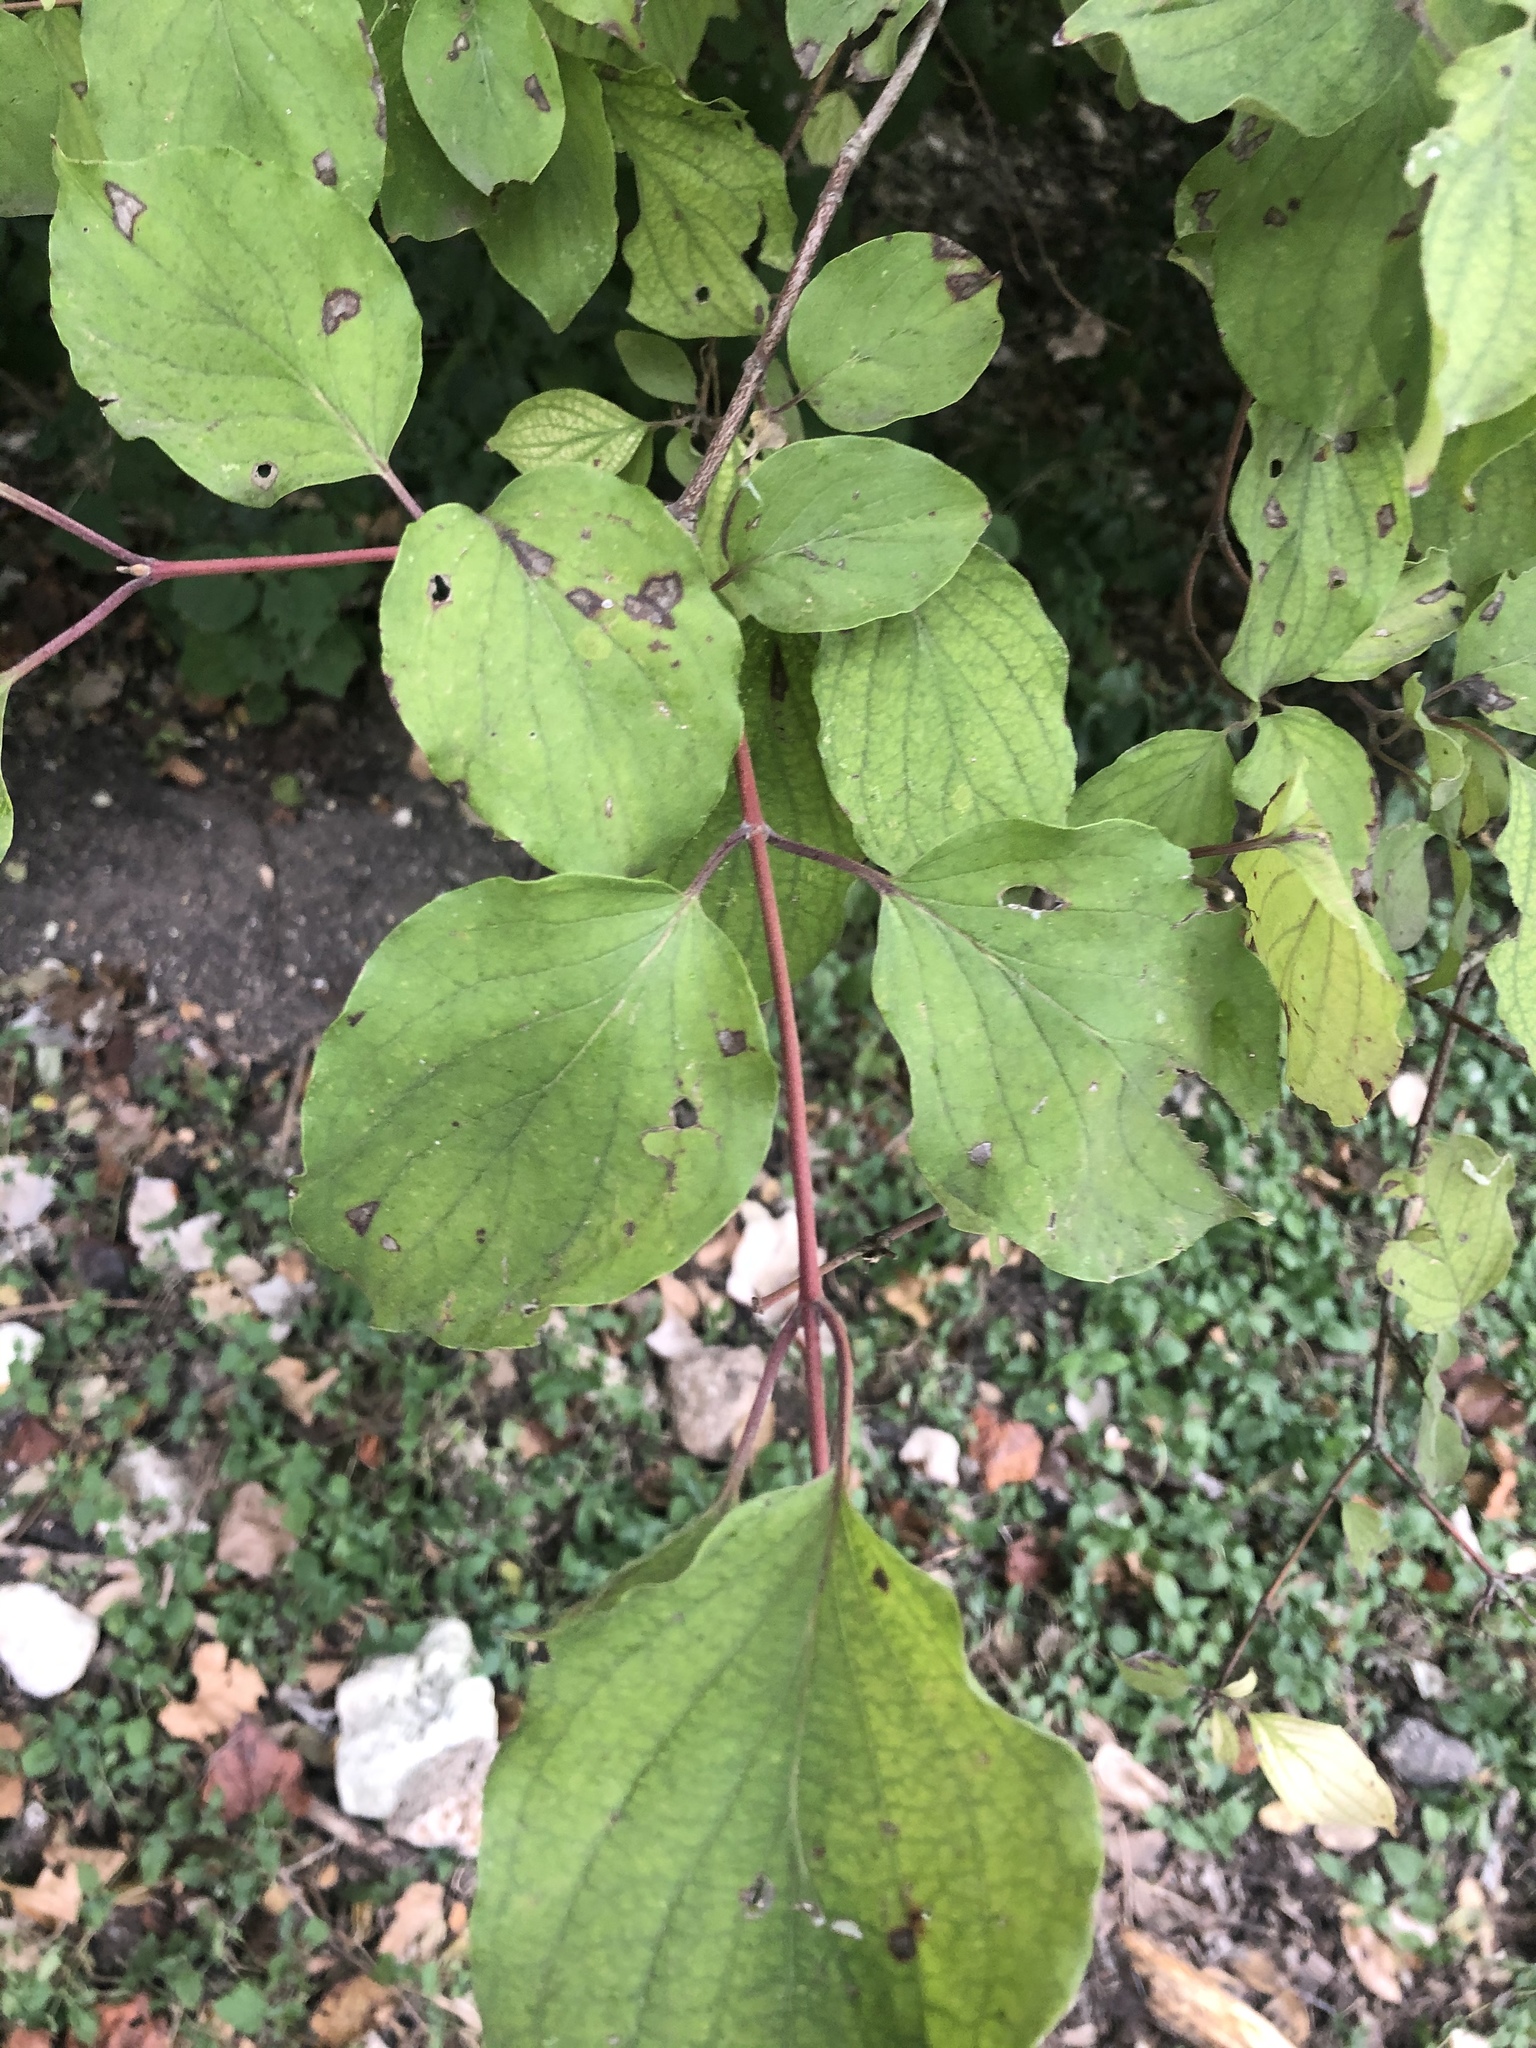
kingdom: Plantae
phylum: Tracheophyta
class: Magnoliopsida
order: Cornales
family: Cornaceae
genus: Cornus
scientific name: Cornus drummondii
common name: Rough-leaf dogwood
